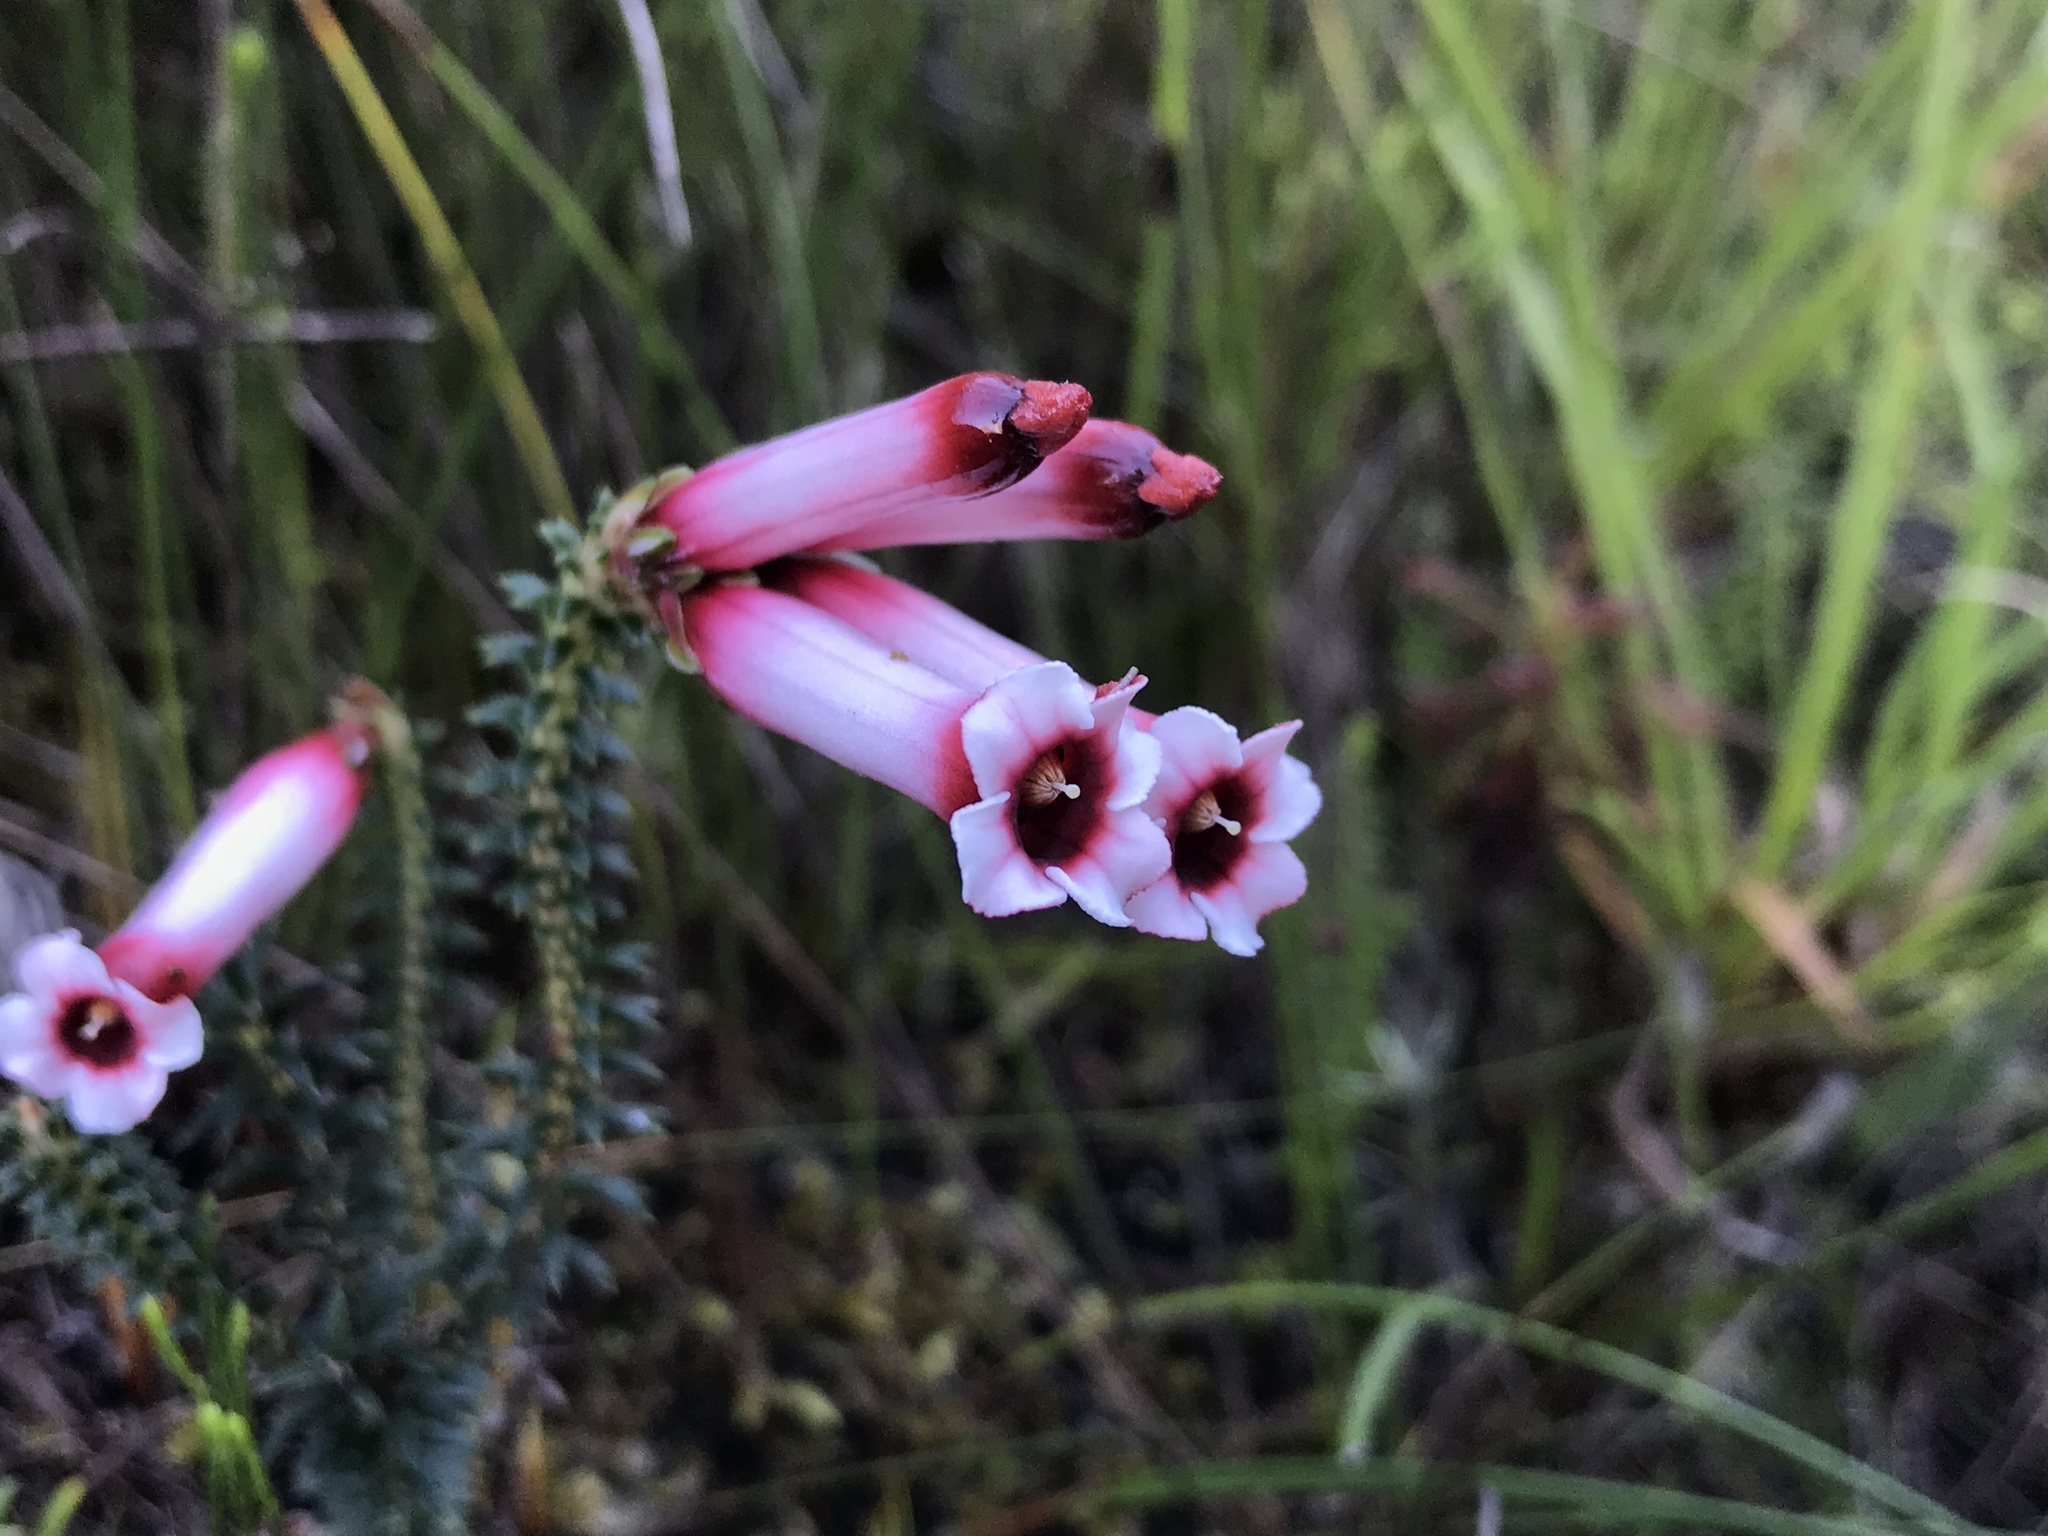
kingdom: Plantae
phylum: Tracheophyta
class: Magnoliopsida
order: Ericales
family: Ericaceae
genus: Erica
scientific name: Erica aristata
